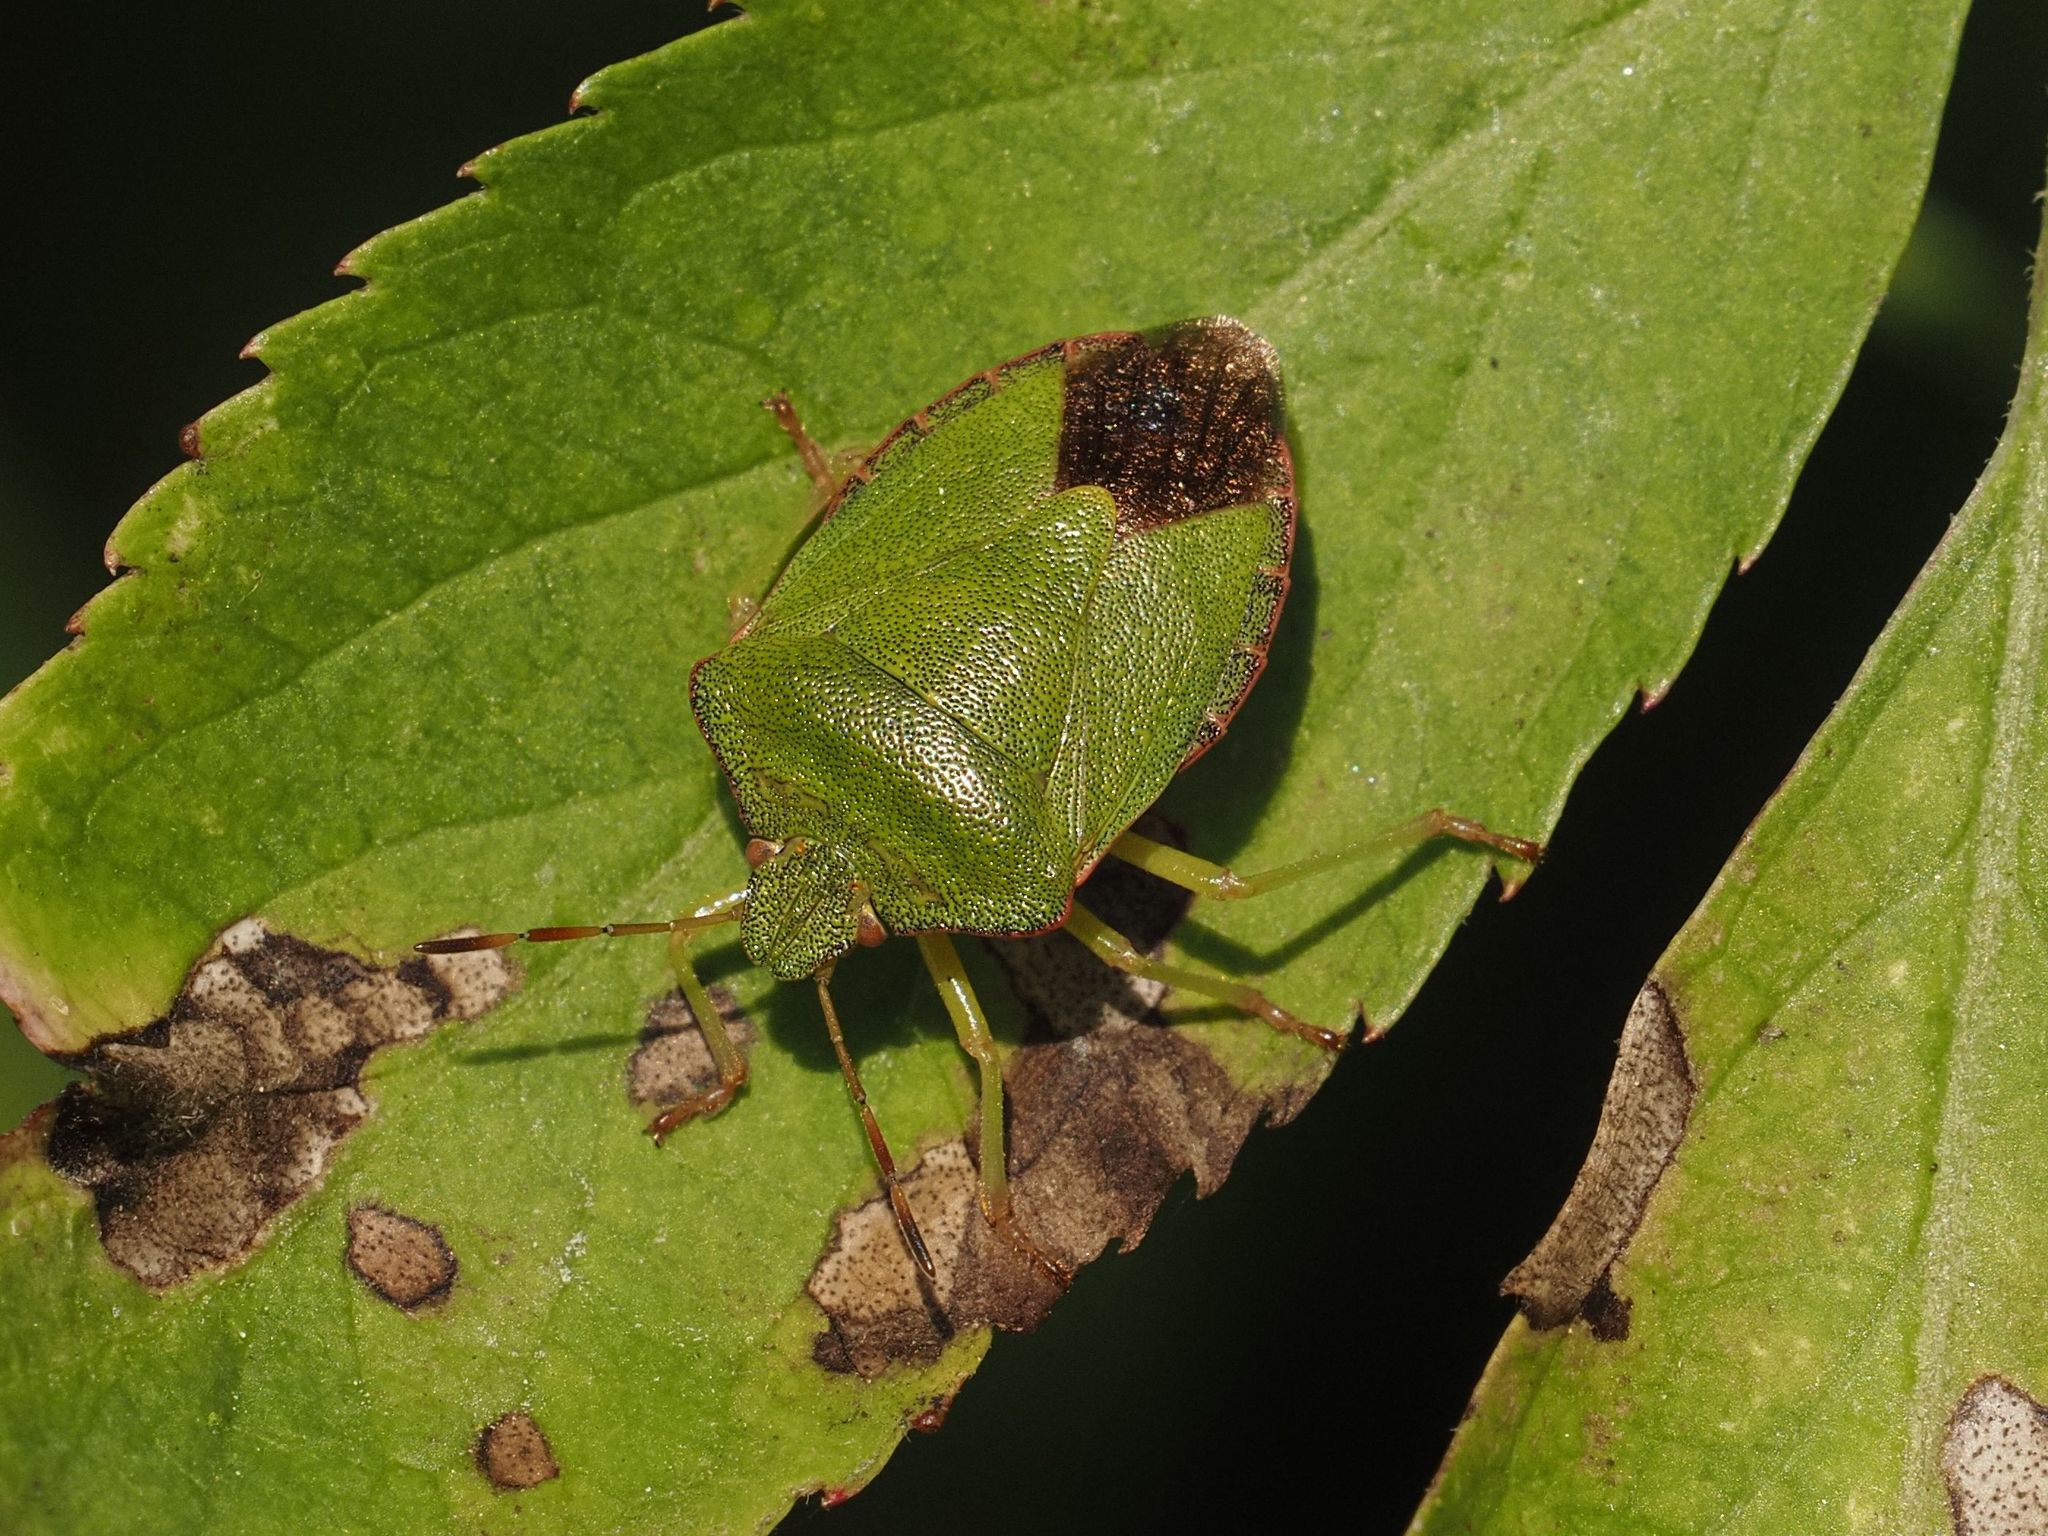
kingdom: Animalia
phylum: Arthropoda
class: Insecta
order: Hemiptera
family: Pentatomidae
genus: Palomena
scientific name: Palomena prasina
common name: Green shieldbug
